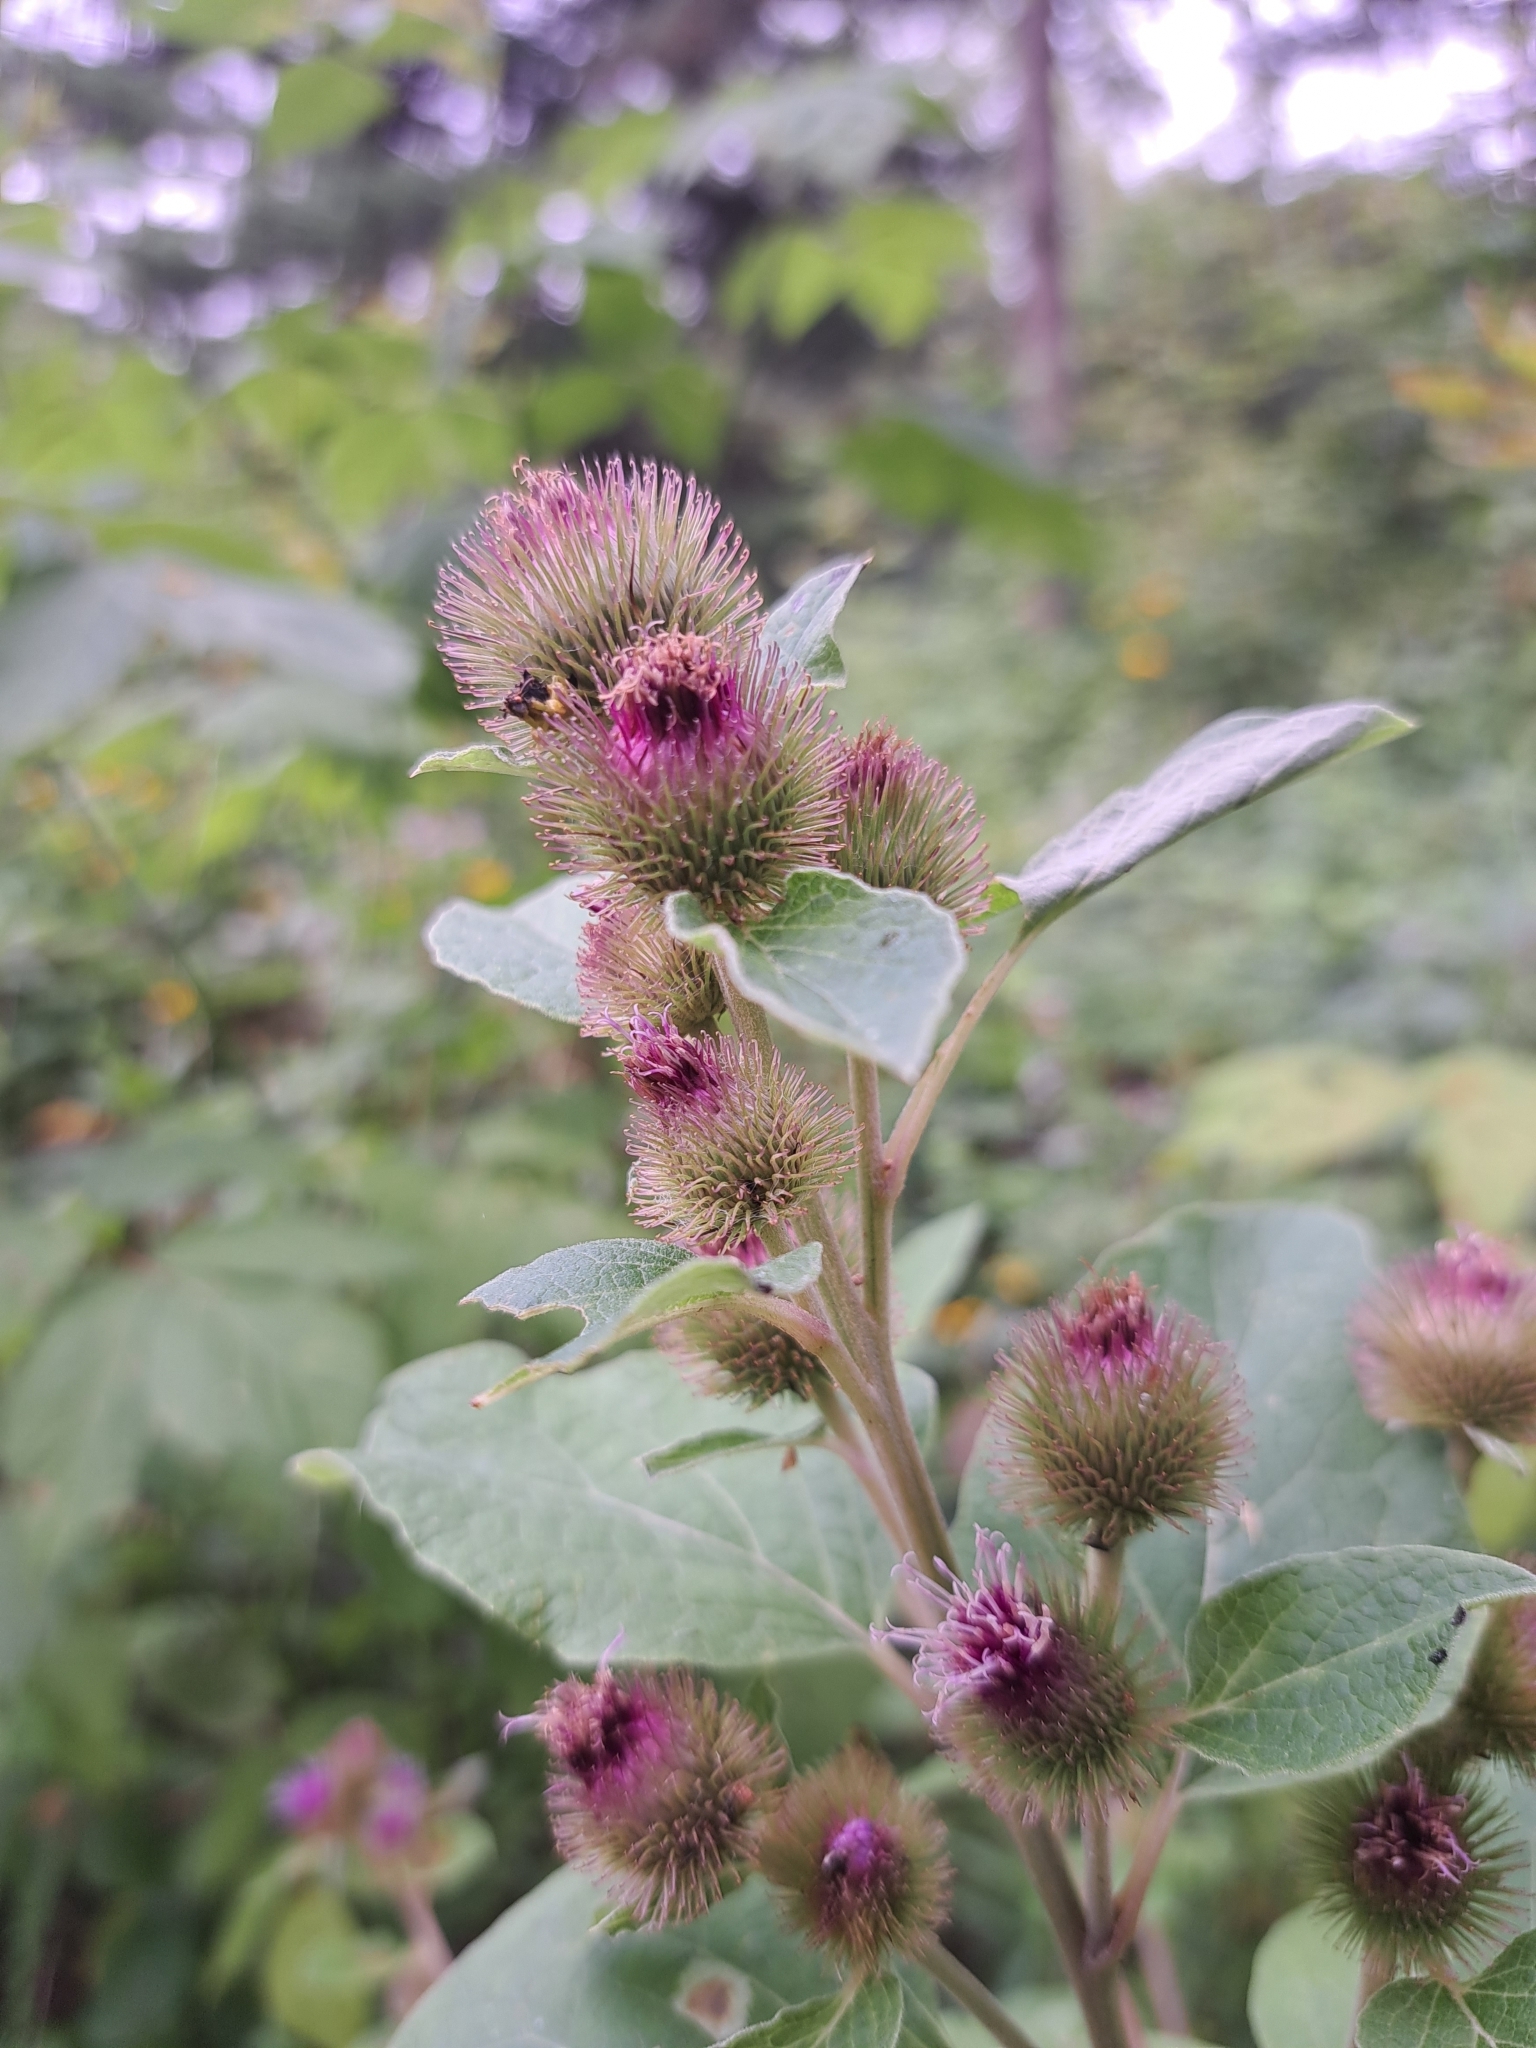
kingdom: Plantae
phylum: Tracheophyta
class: Magnoliopsida
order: Asterales
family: Asteraceae
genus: Arctium
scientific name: Arctium minus
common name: Lesser burdock
